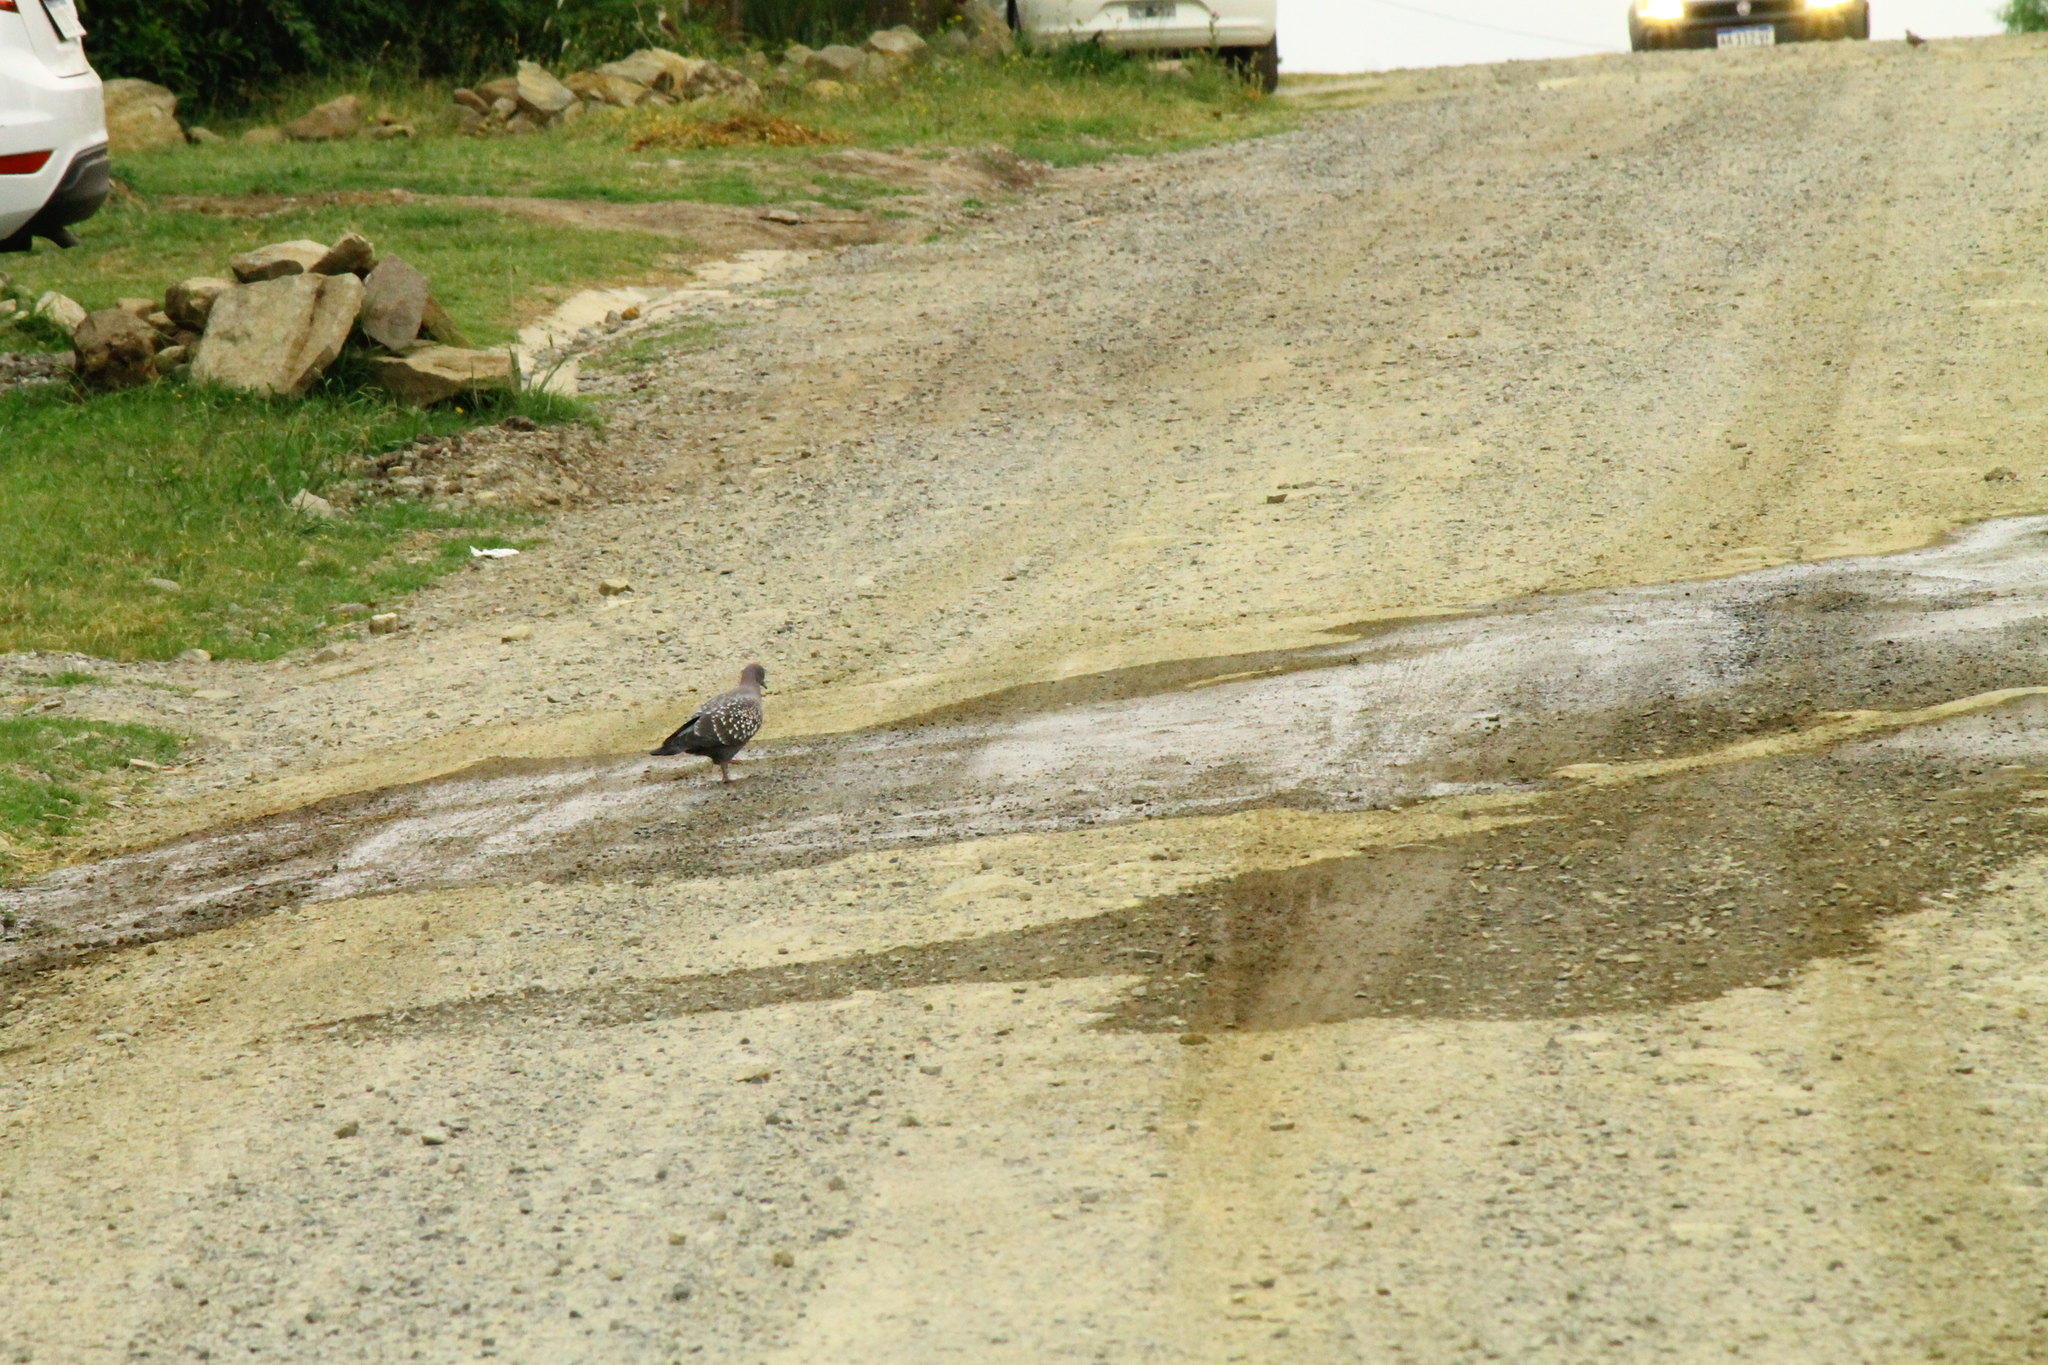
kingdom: Animalia
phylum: Chordata
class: Aves
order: Columbiformes
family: Columbidae
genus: Patagioenas
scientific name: Patagioenas maculosa
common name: Spot-winged pigeon
